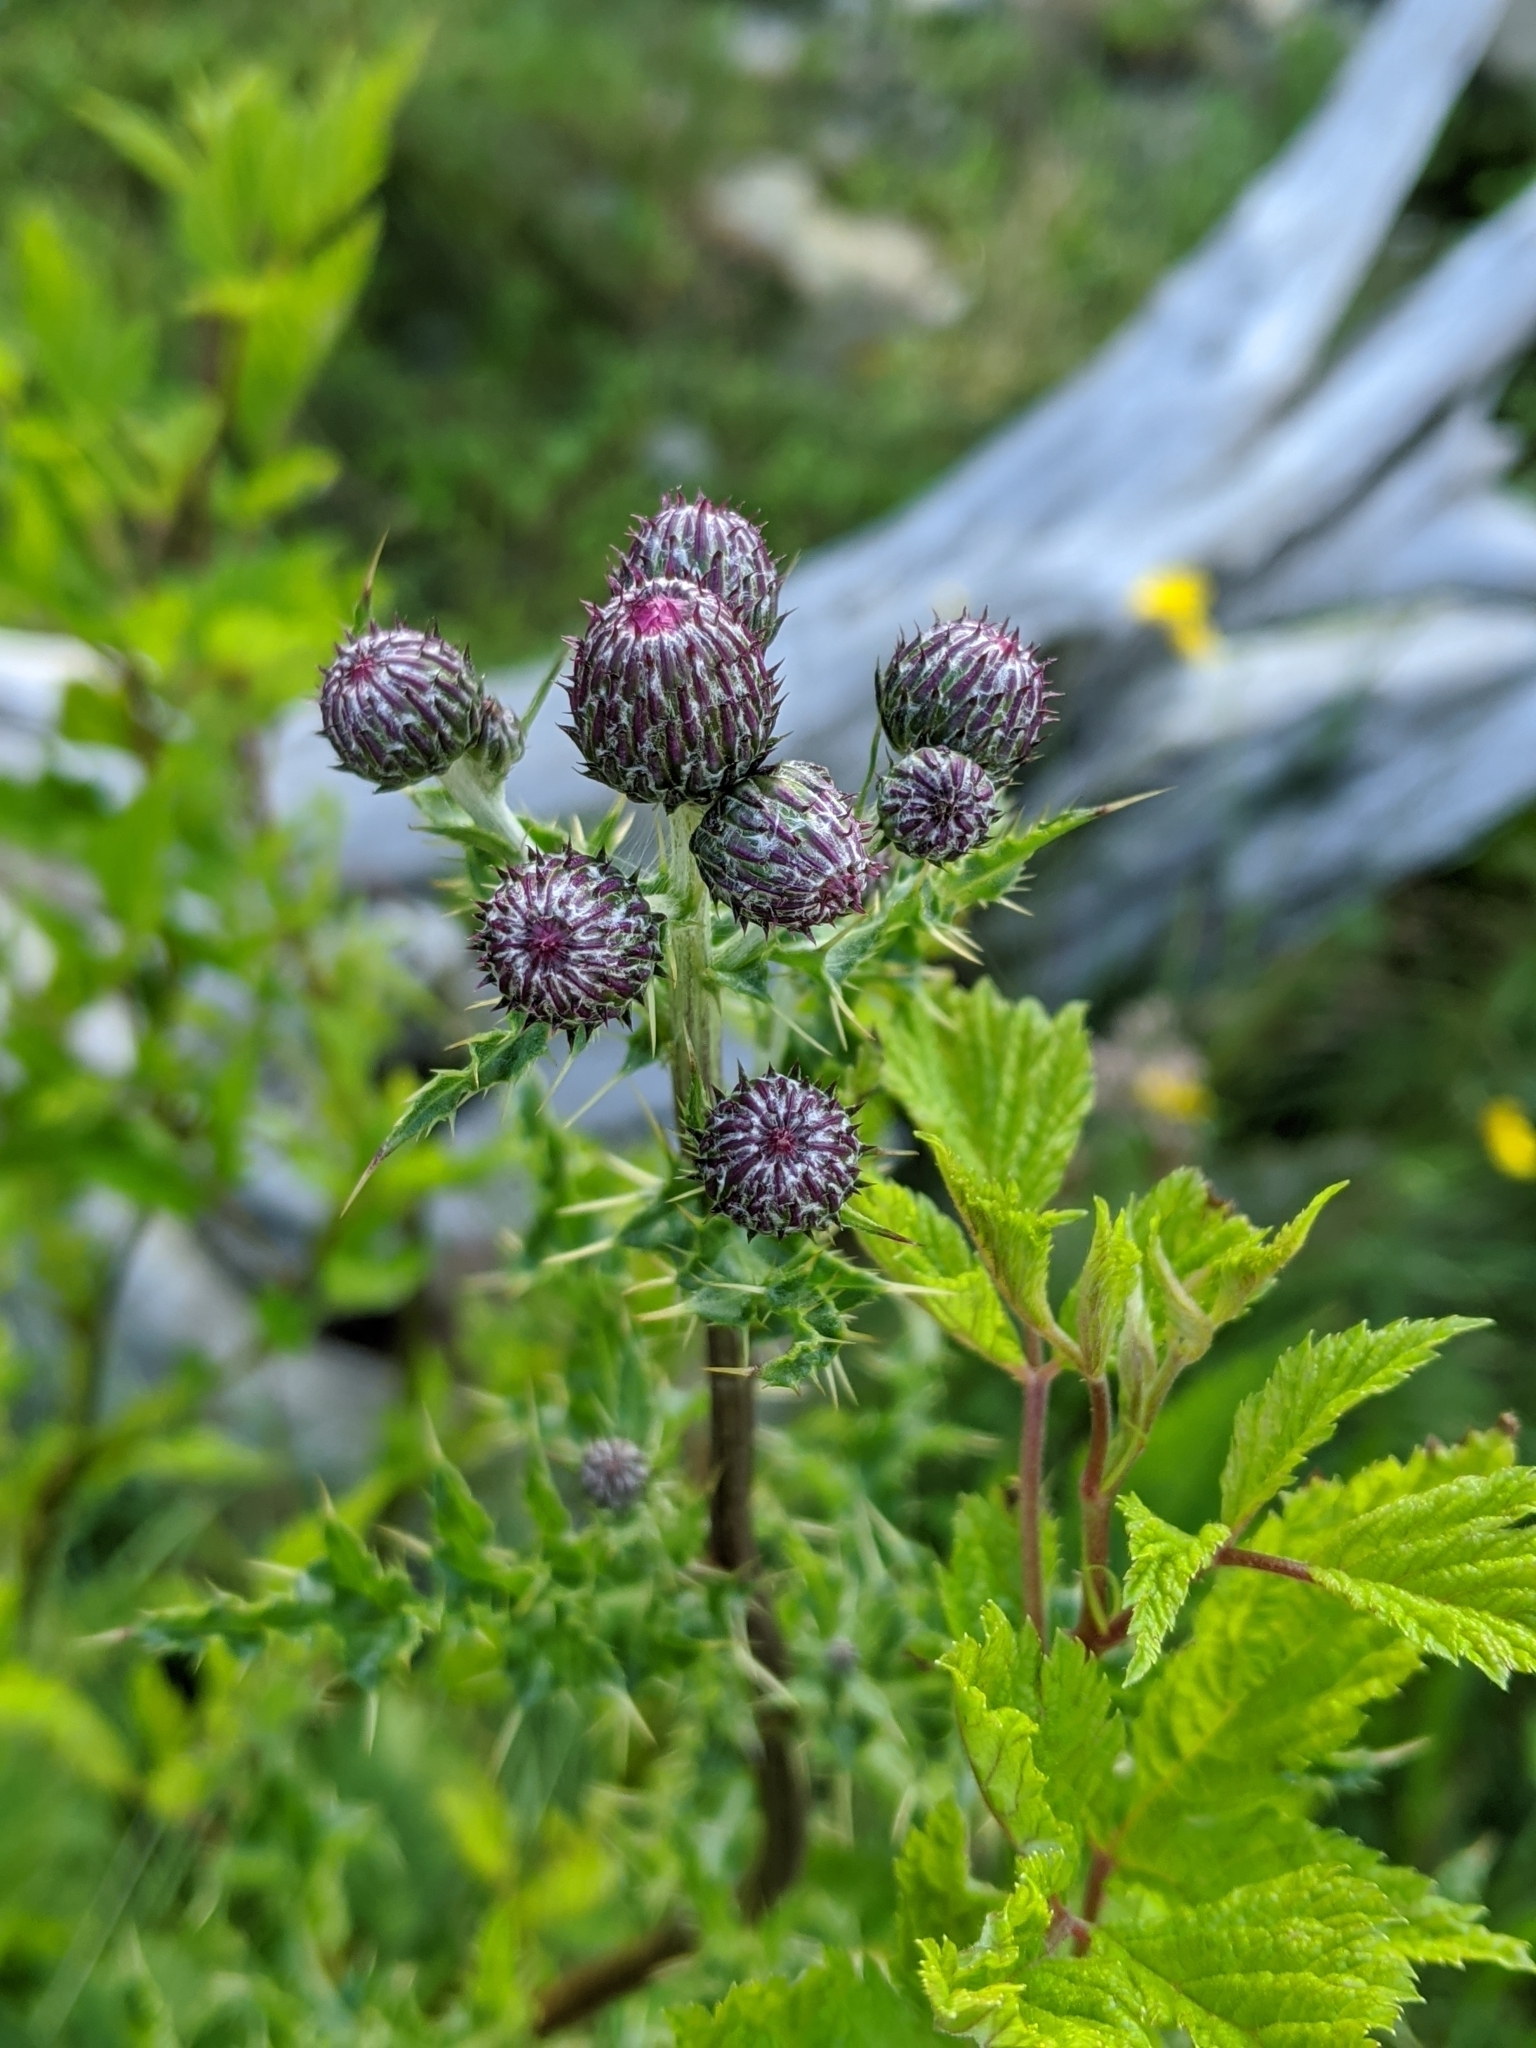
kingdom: Plantae
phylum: Tracheophyta
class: Magnoliopsida
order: Asterales
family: Asteraceae
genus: Cirsium
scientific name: Cirsium arvense
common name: Creeping thistle
